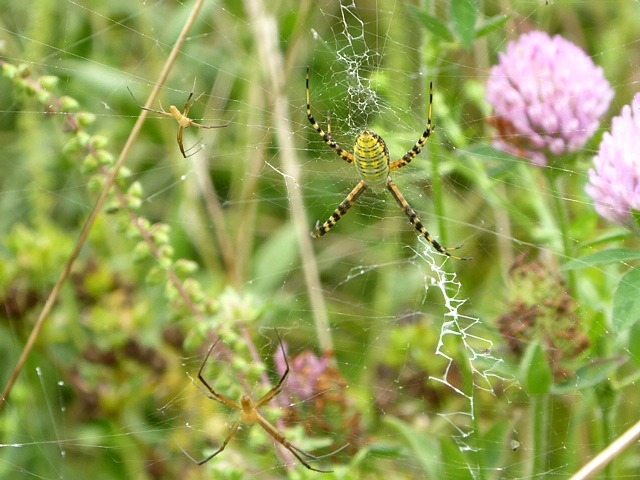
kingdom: Animalia
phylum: Arthropoda
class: Arachnida
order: Araneae
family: Araneidae
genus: Argiope
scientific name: Argiope trifasciata
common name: Banded garden spider
